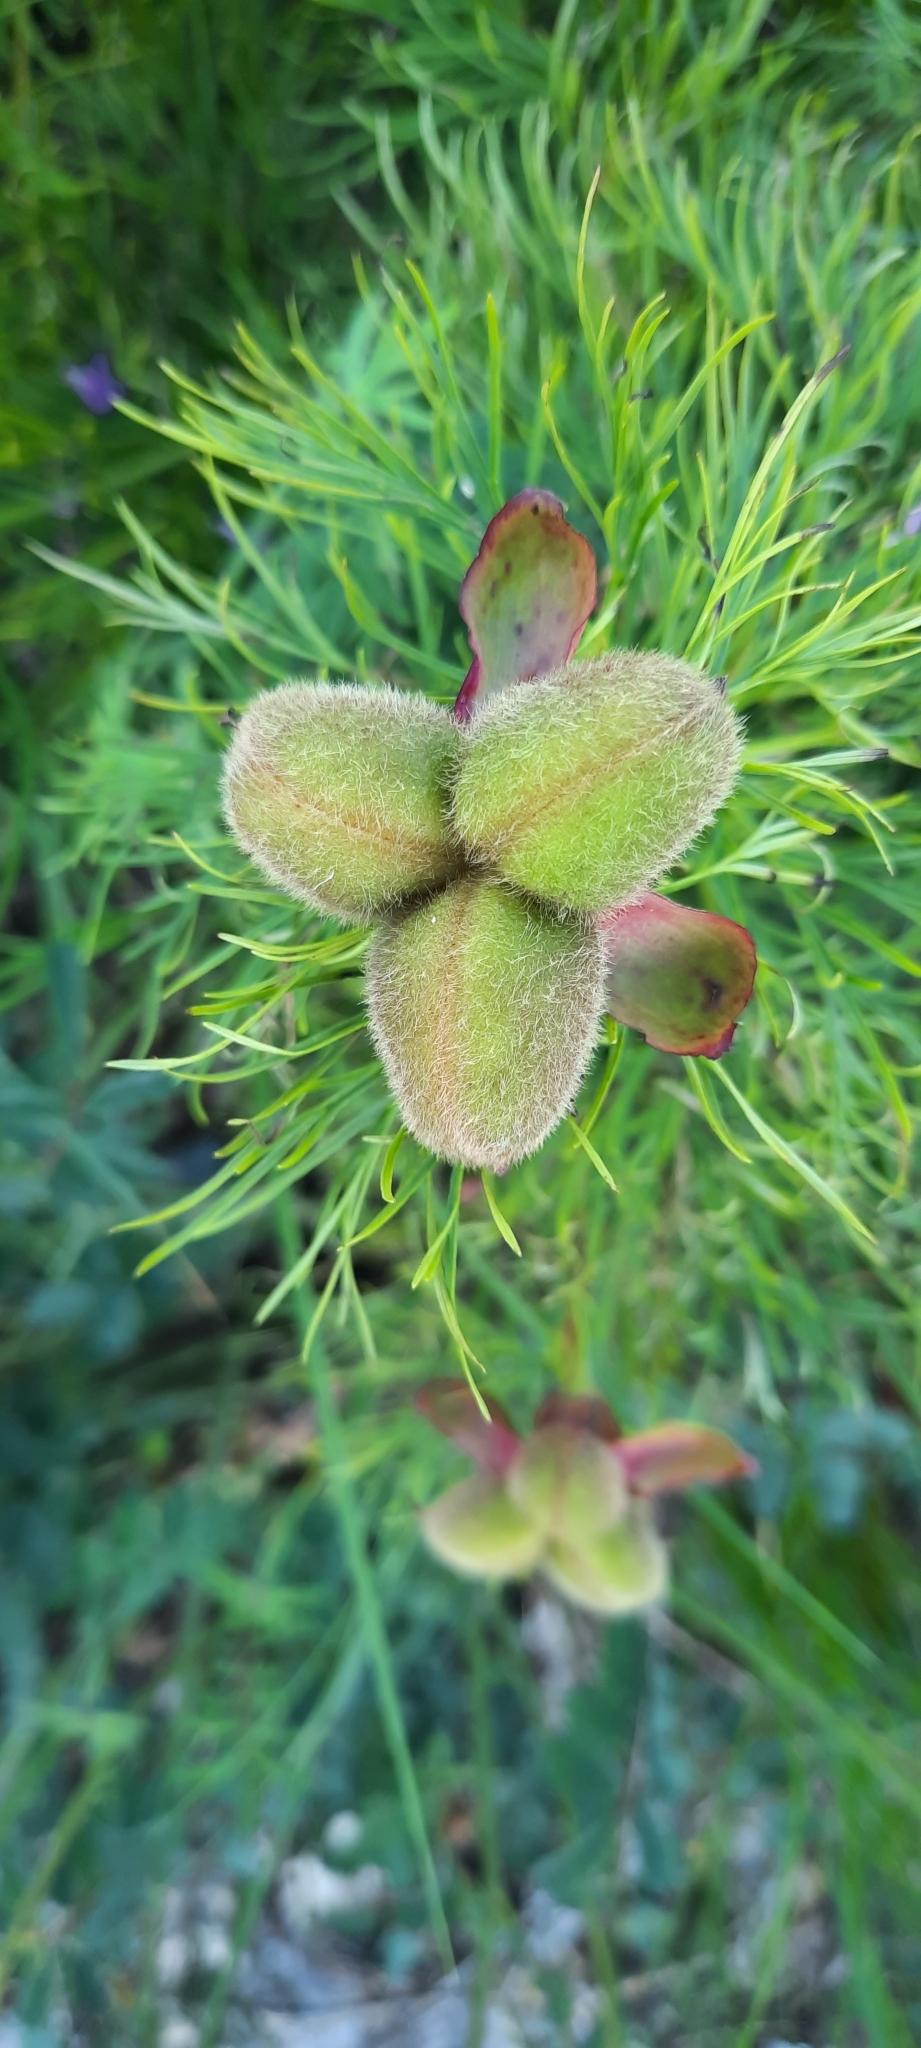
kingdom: Plantae
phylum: Tracheophyta
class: Magnoliopsida
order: Saxifragales
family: Paeoniaceae
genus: Paeonia
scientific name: Paeonia tenuifolia
